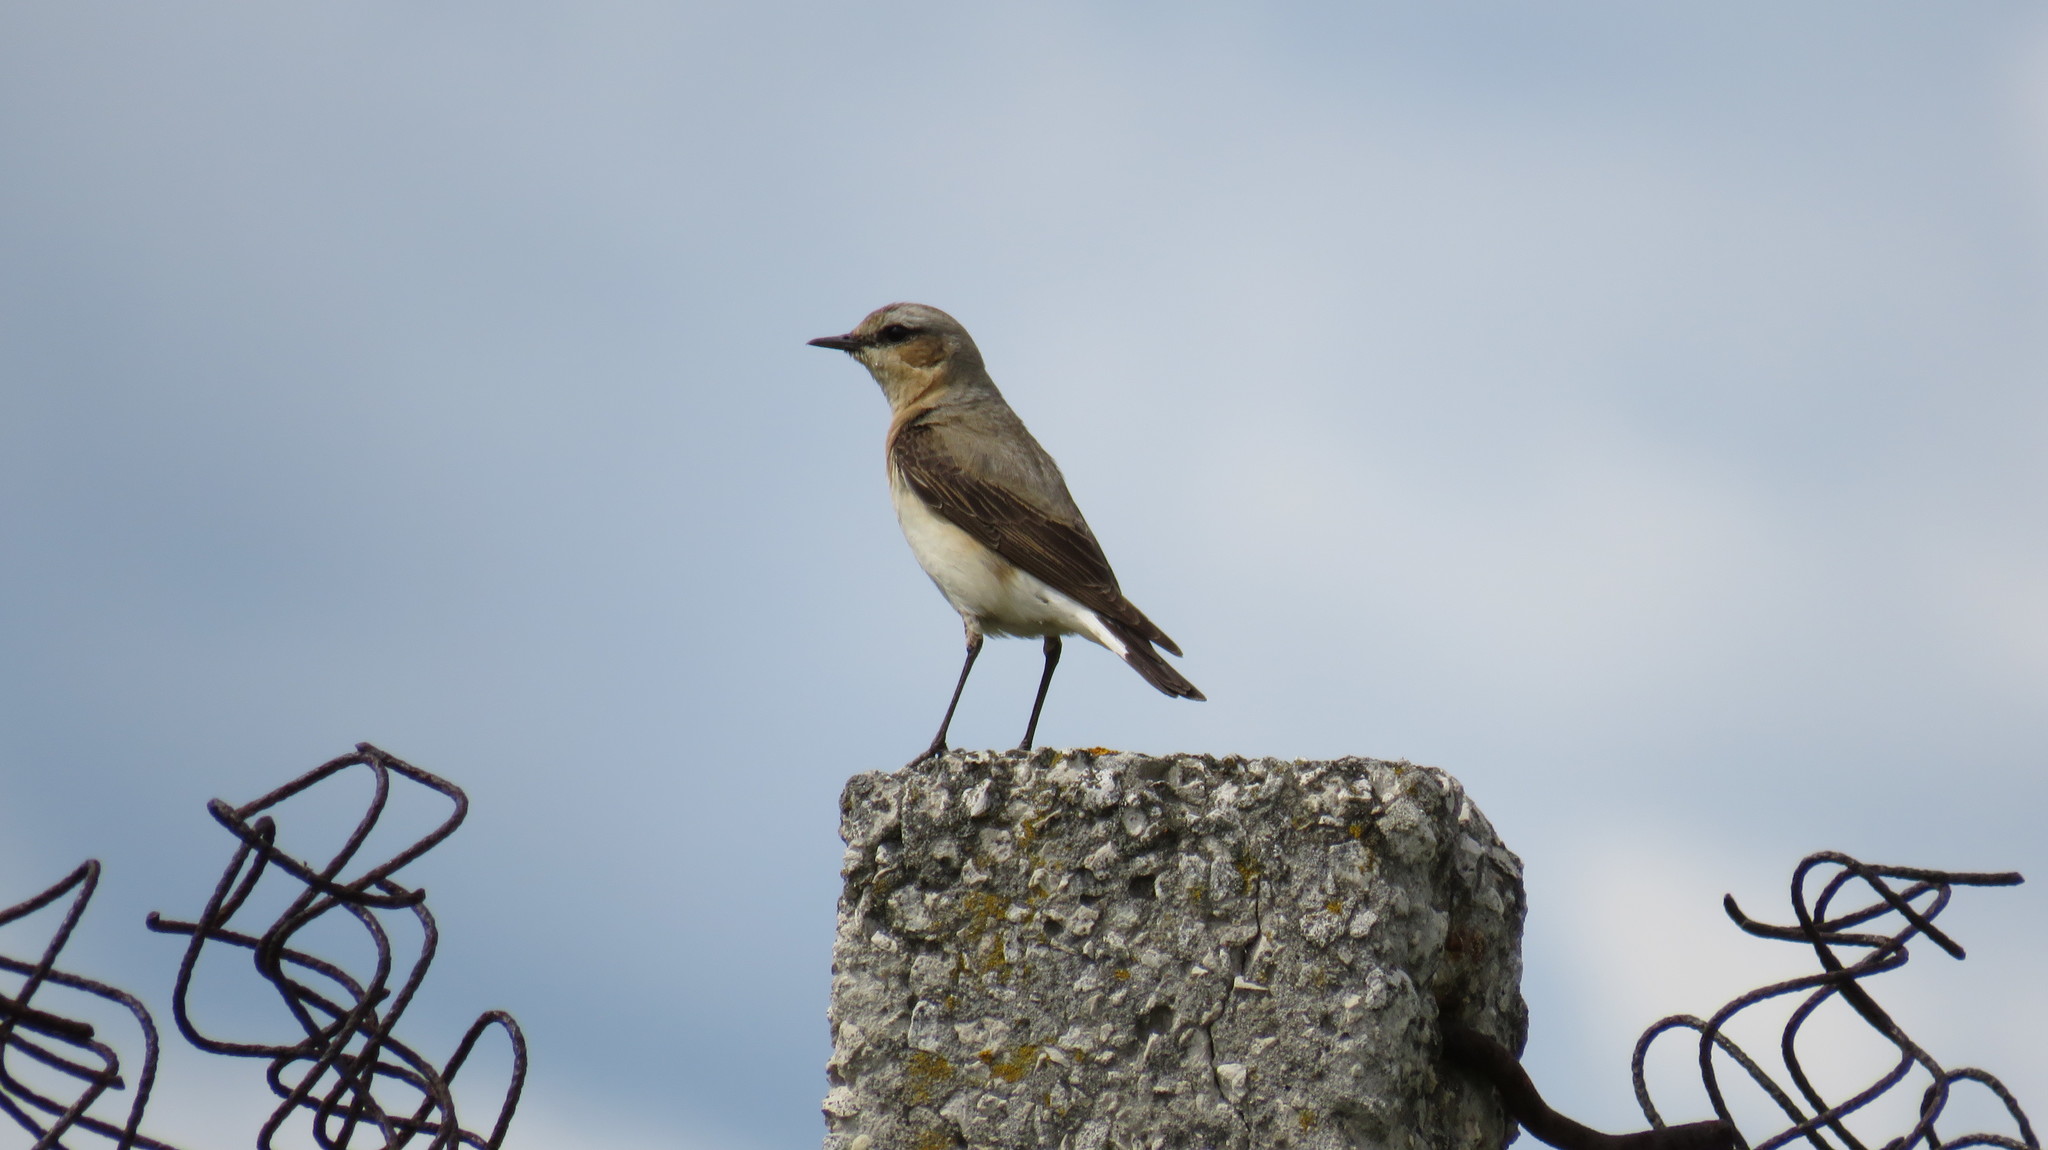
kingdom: Animalia
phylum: Chordata
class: Aves
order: Passeriformes
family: Muscicapidae
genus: Oenanthe
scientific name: Oenanthe oenanthe
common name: Northern wheatear
